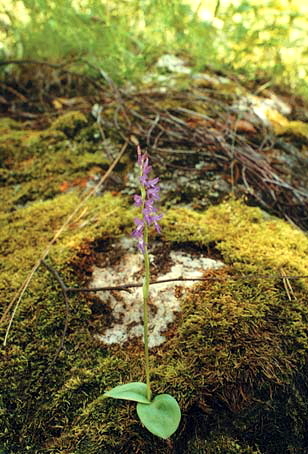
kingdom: Plantae
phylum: Tracheophyta
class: Liliopsida
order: Asparagales
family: Orchidaceae
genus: Hemipilia
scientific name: Hemipilia cucullata
